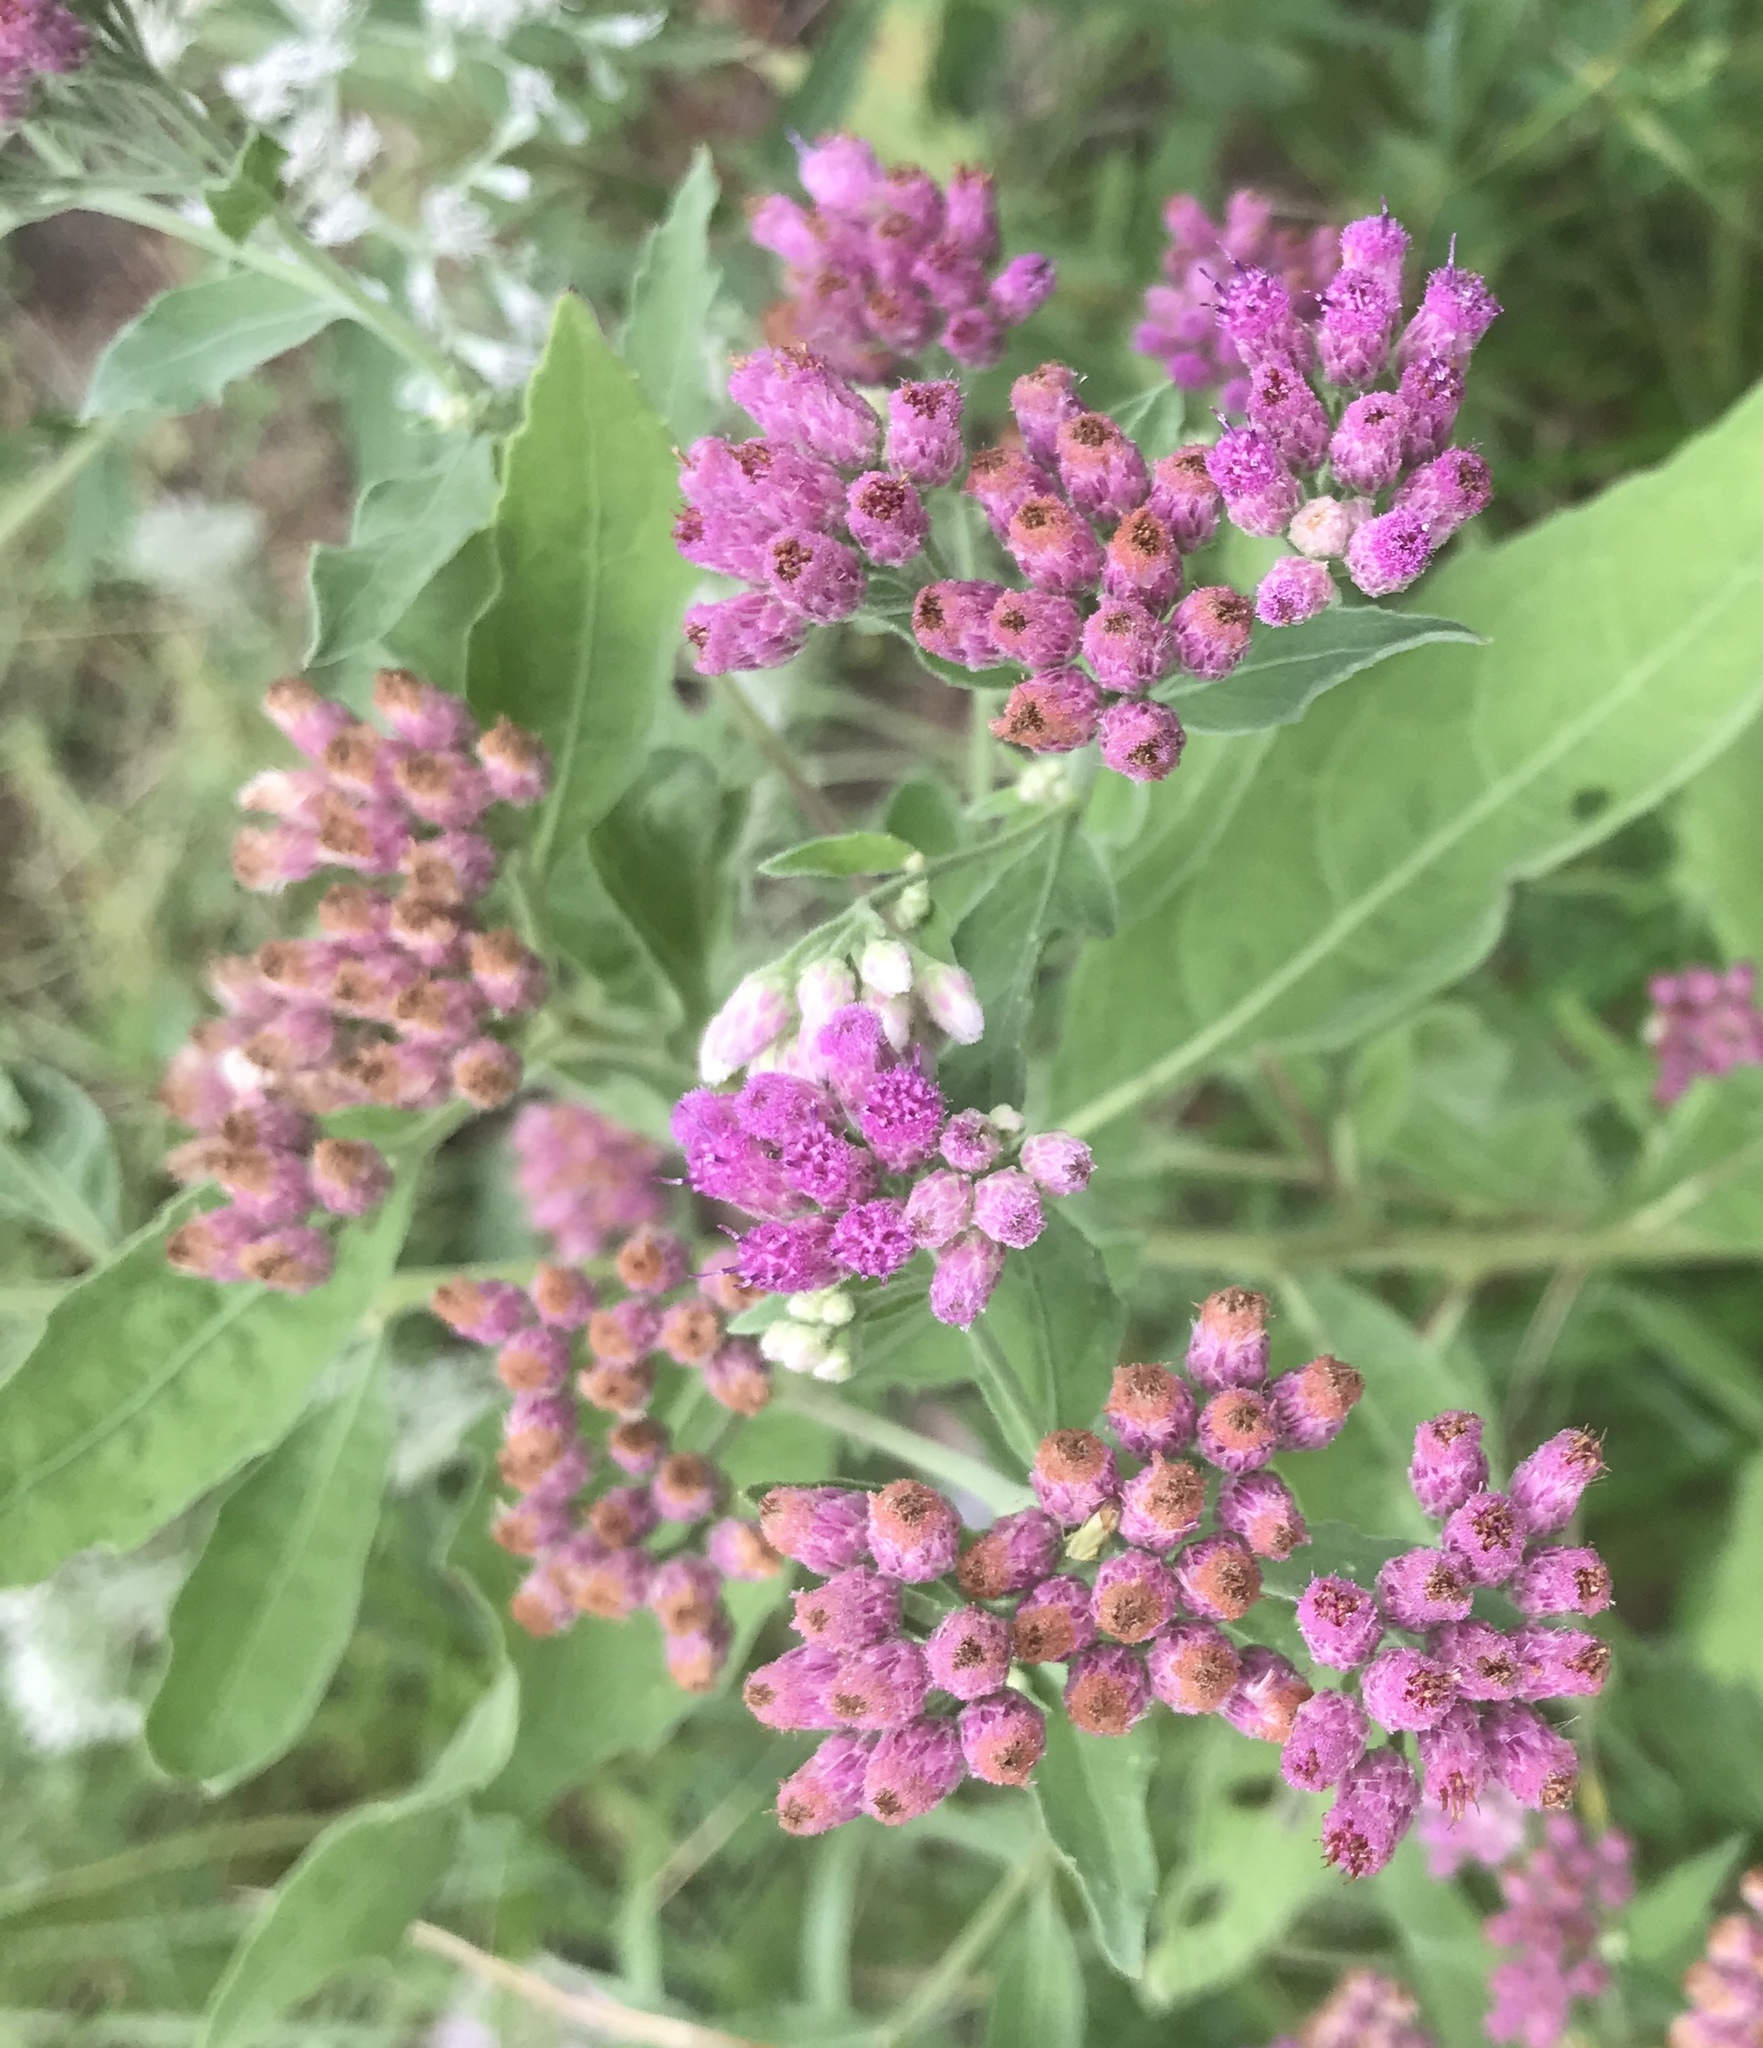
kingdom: Plantae
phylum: Tracheophyta
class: Magnoliopsida
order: Asterales
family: Asteraceae
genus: Pluchea
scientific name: Pluchea odorata
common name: Saltmarsh fleabane
